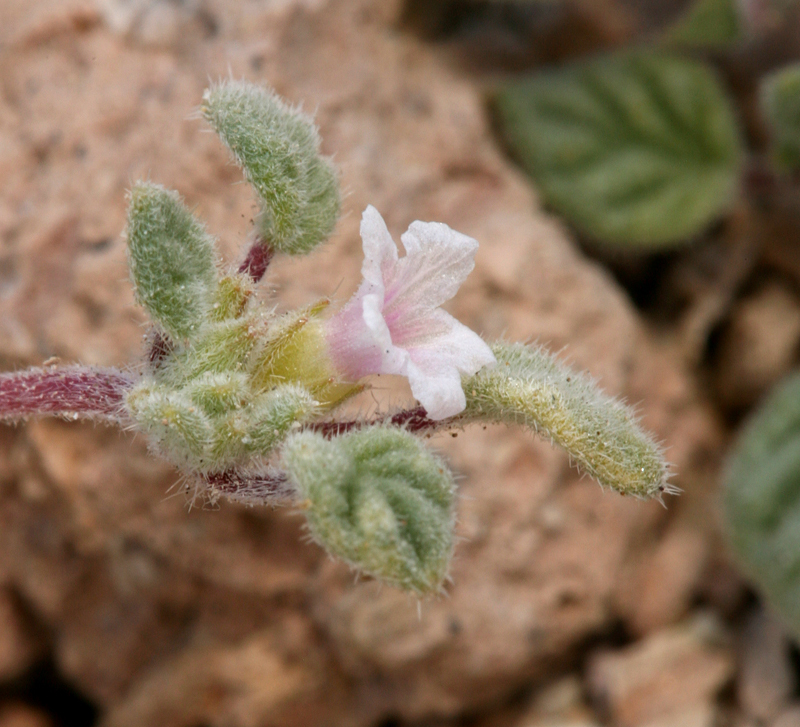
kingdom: Plantae
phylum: Tracheophyta
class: Magnoliopsida
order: Boraginales
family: Ehretiaceae
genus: Tiquilia
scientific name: Tiquilia nuttallii
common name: Rosette tiquilia
